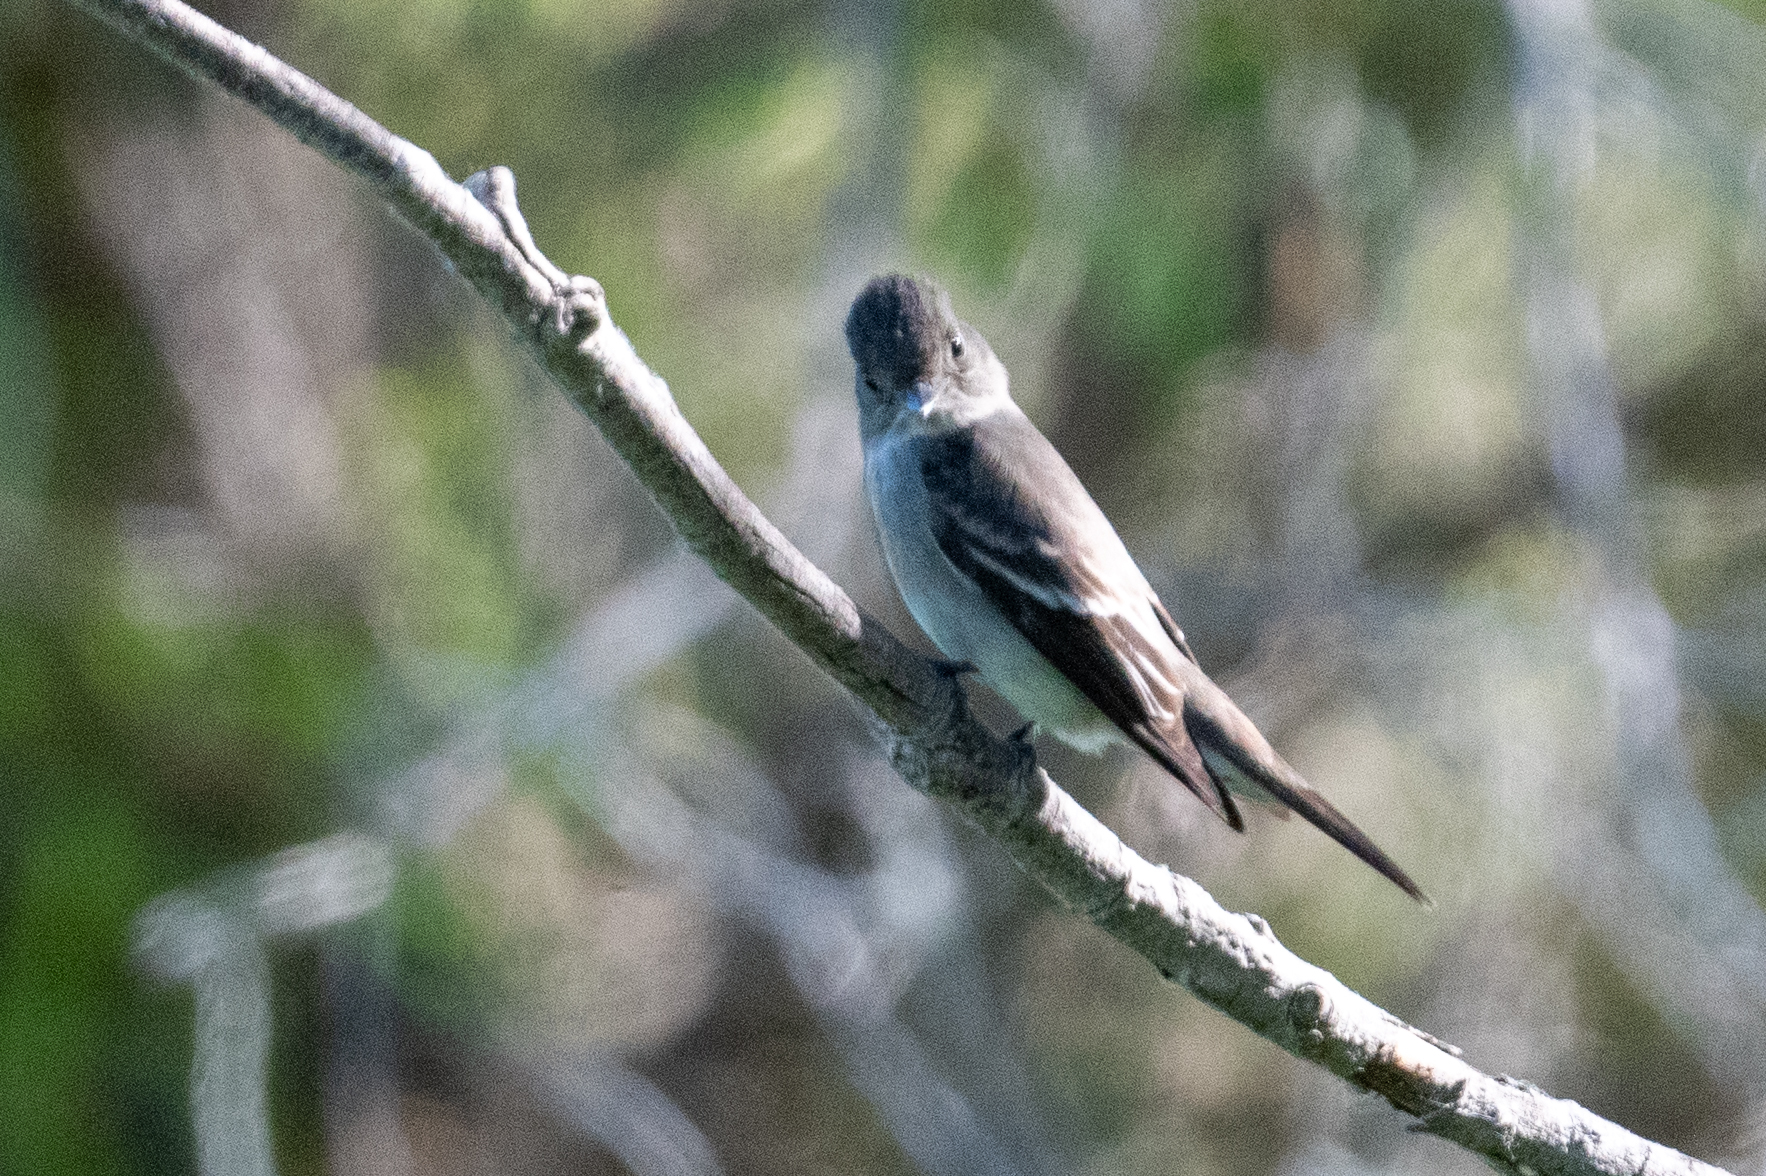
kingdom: Animalia
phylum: Chordata
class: Aves
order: Passeriformes
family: Tyrannidae
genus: Contopus
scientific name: Contopus sordidulus
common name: Western wood-pewee
